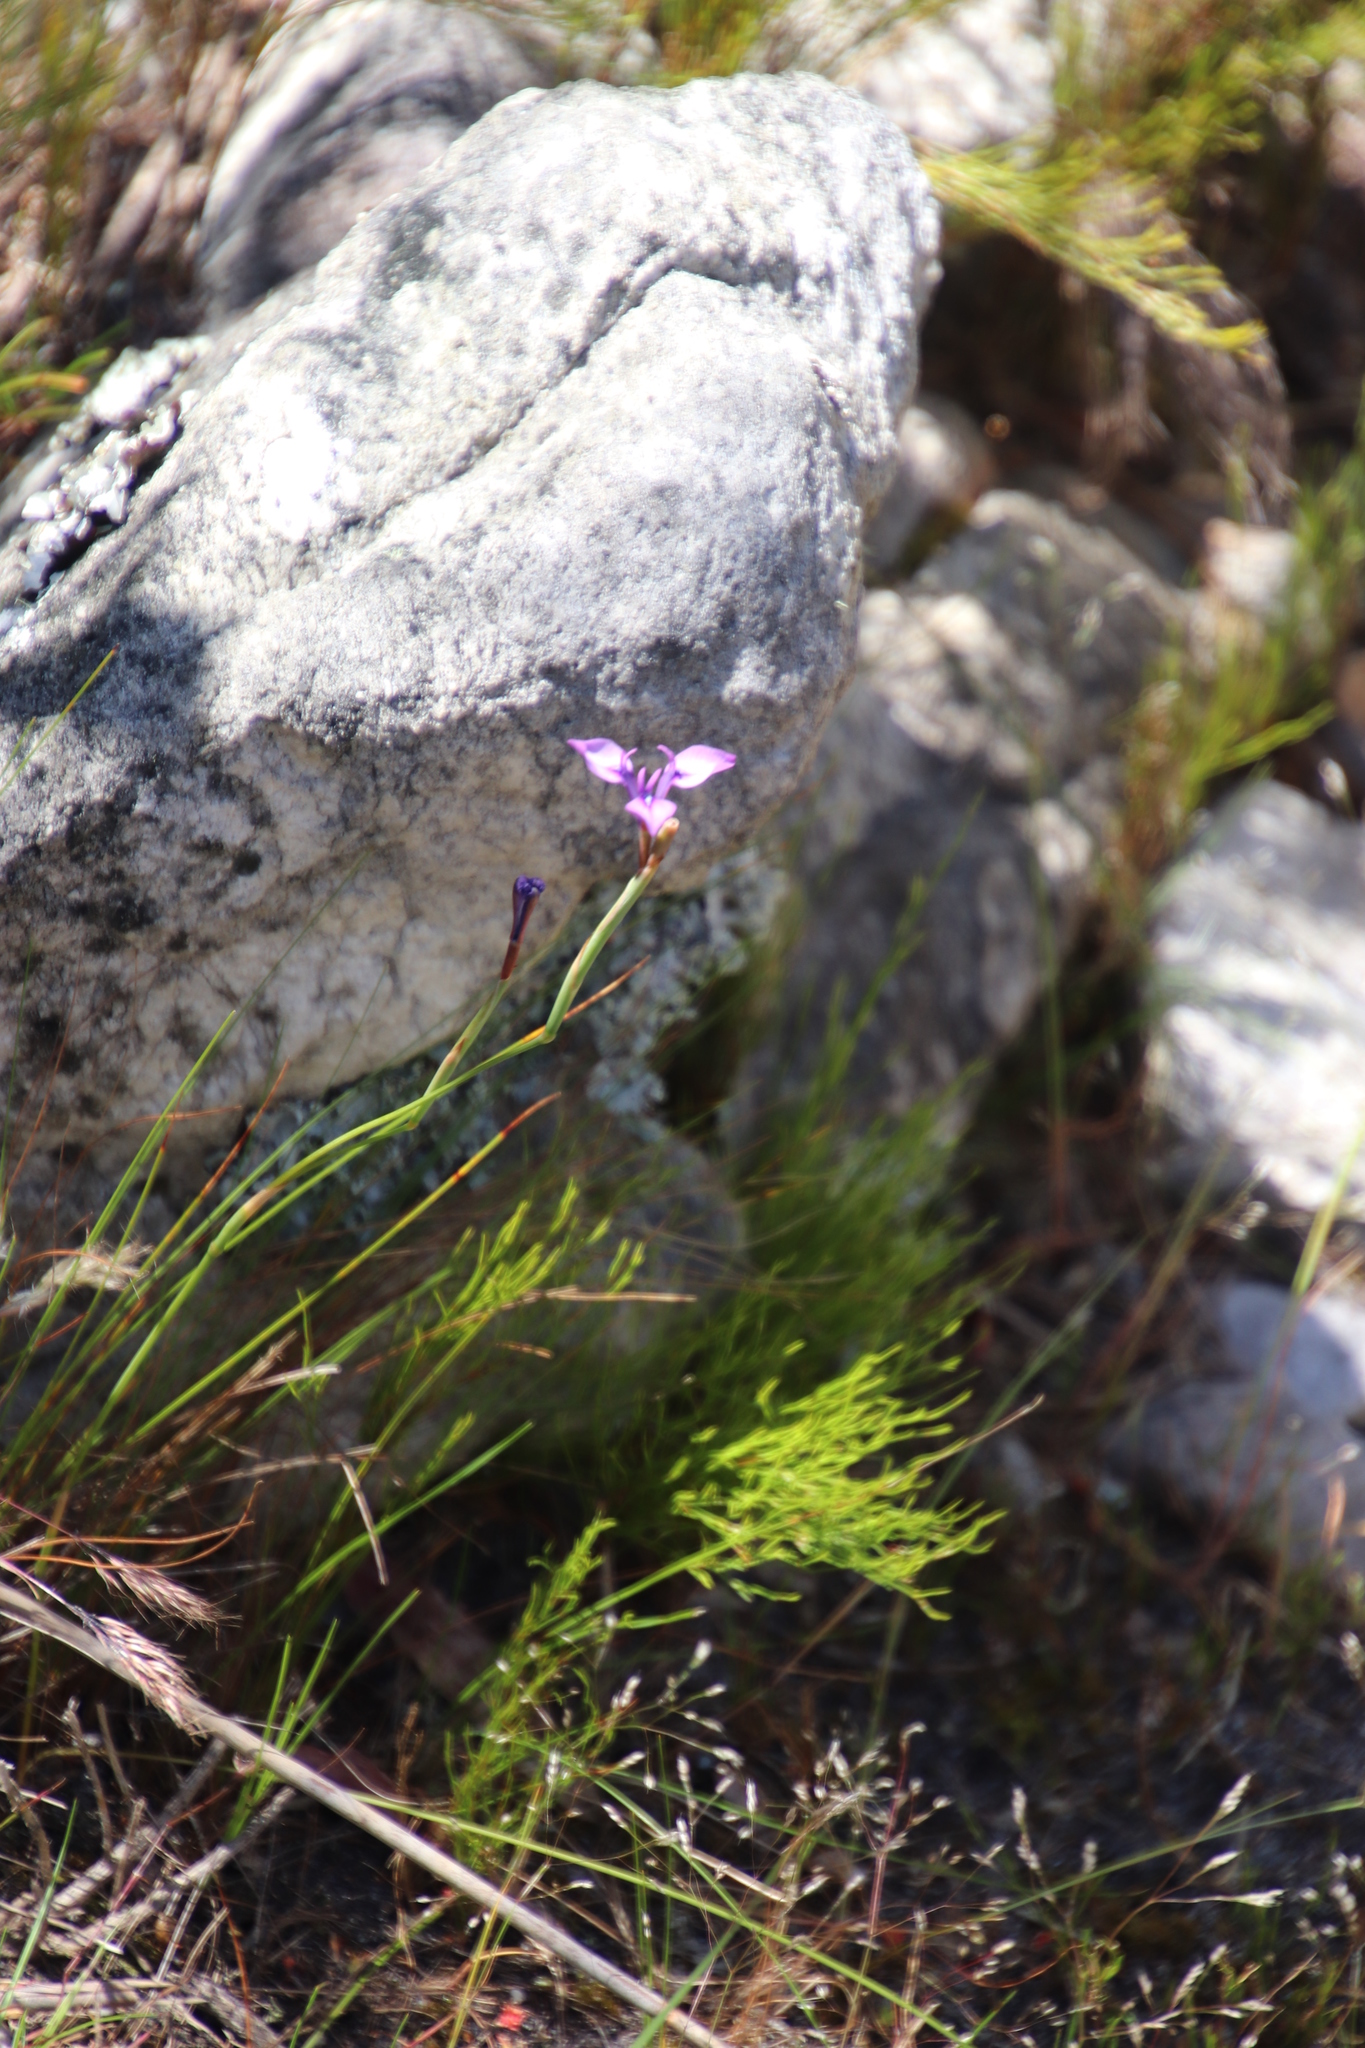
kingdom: Plantae
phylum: Tracheophyta
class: Liliopsida
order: Asparagales
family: Iridaceae
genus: Moraea
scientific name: Moraea tripetala
